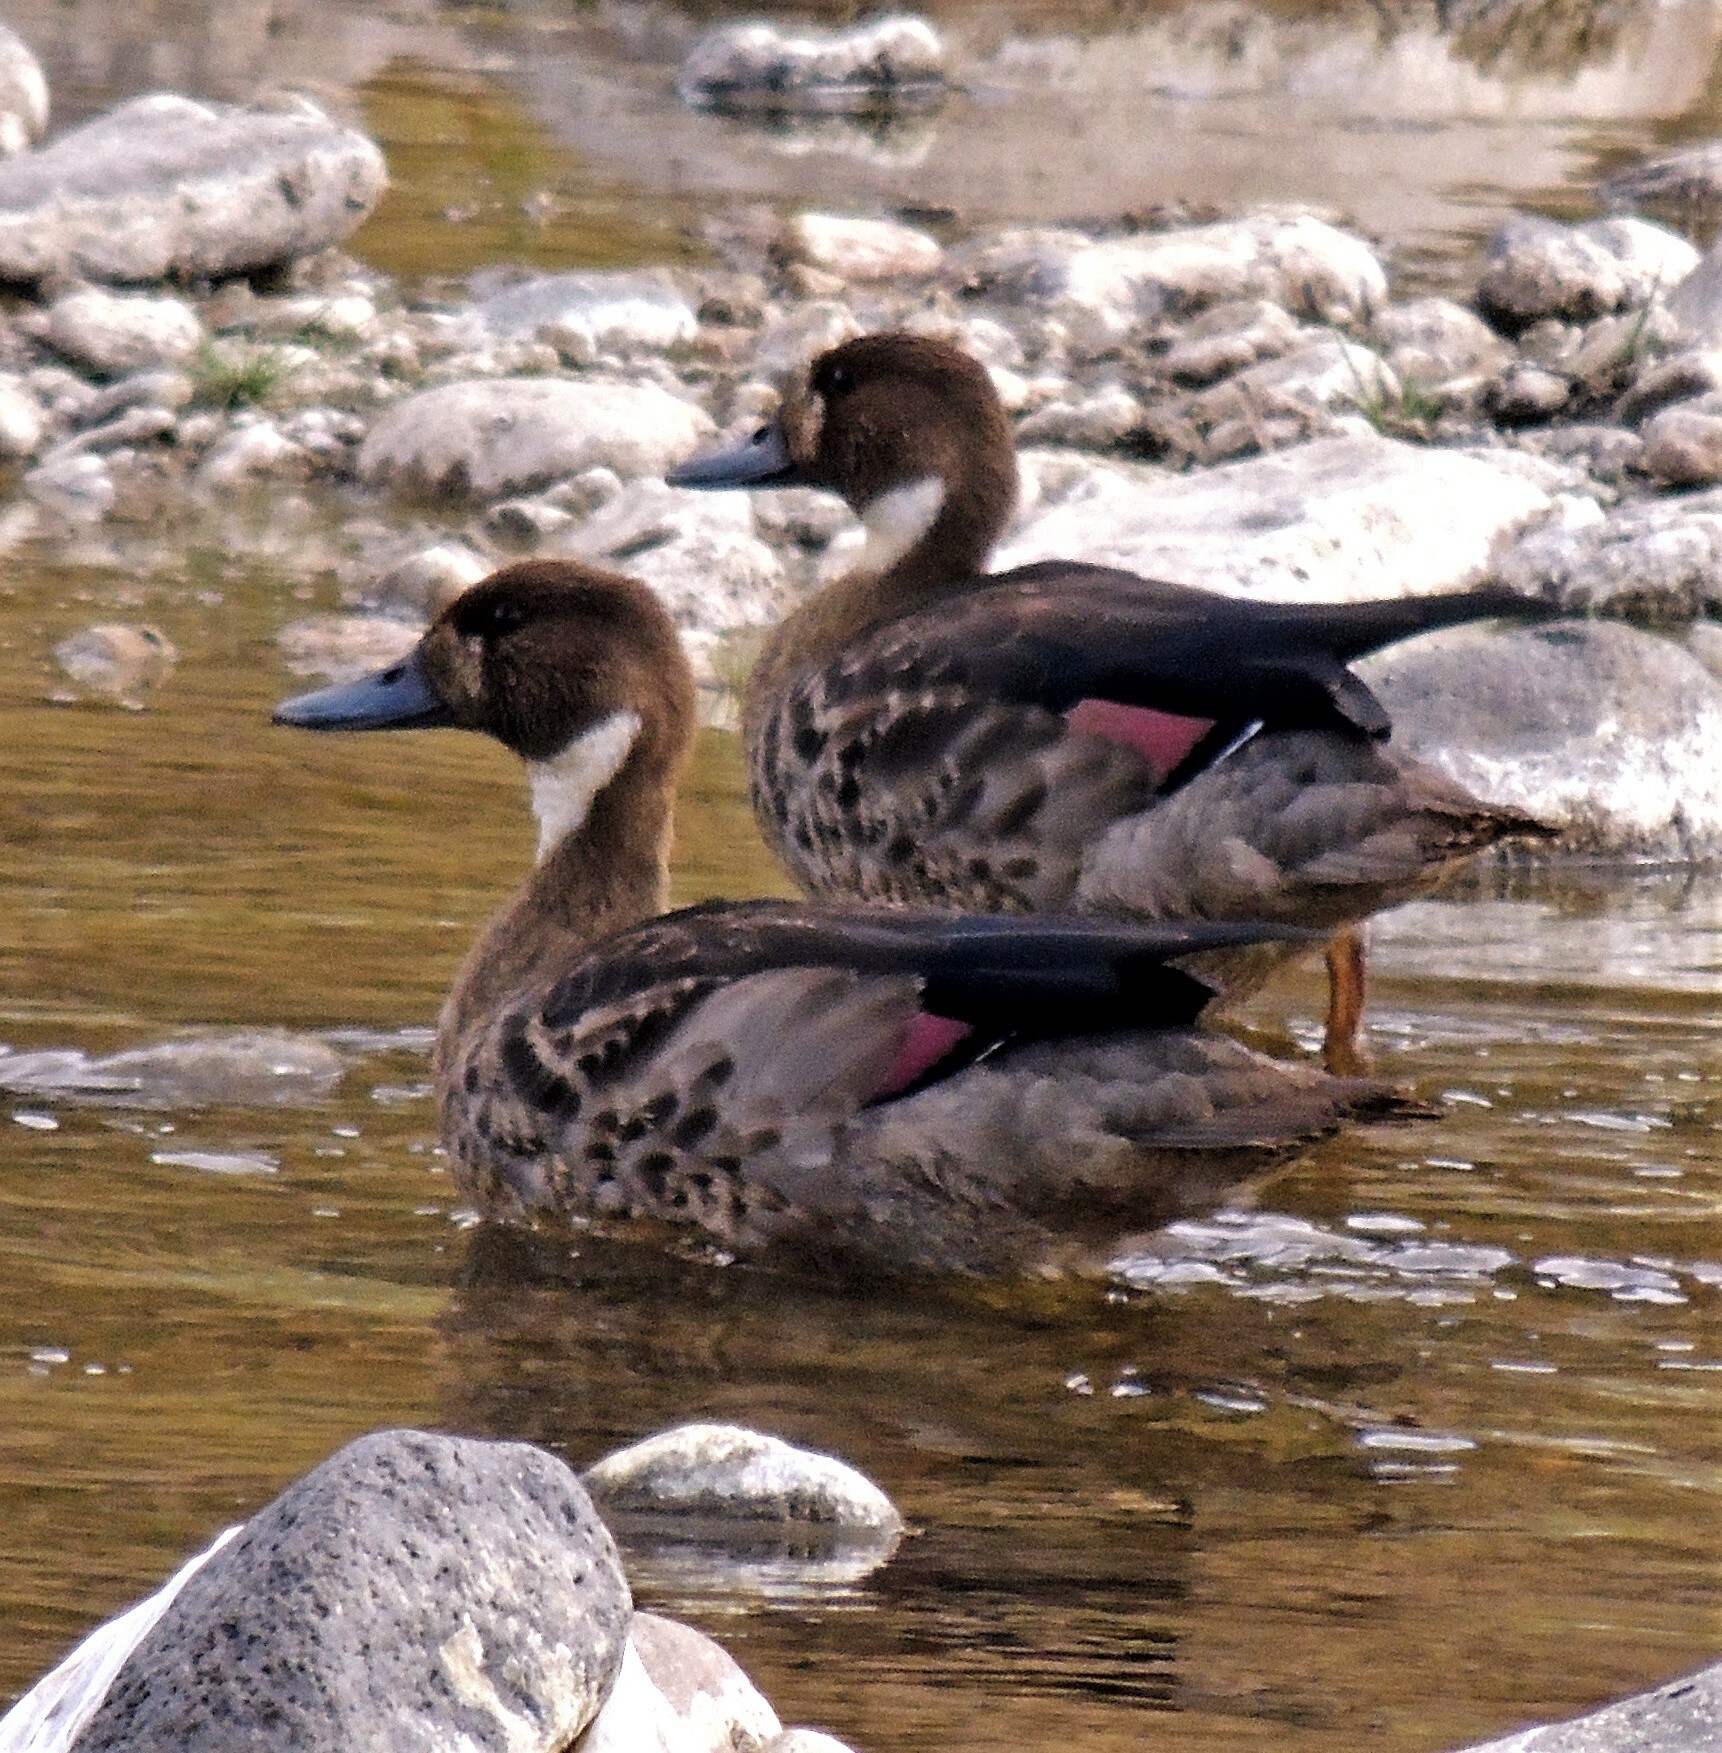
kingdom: Animalia
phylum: Chordata
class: Aves
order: Anseriformes
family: Anatidae
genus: Speculanas
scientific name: Speculanas specularis
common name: Bronze-winged duck
